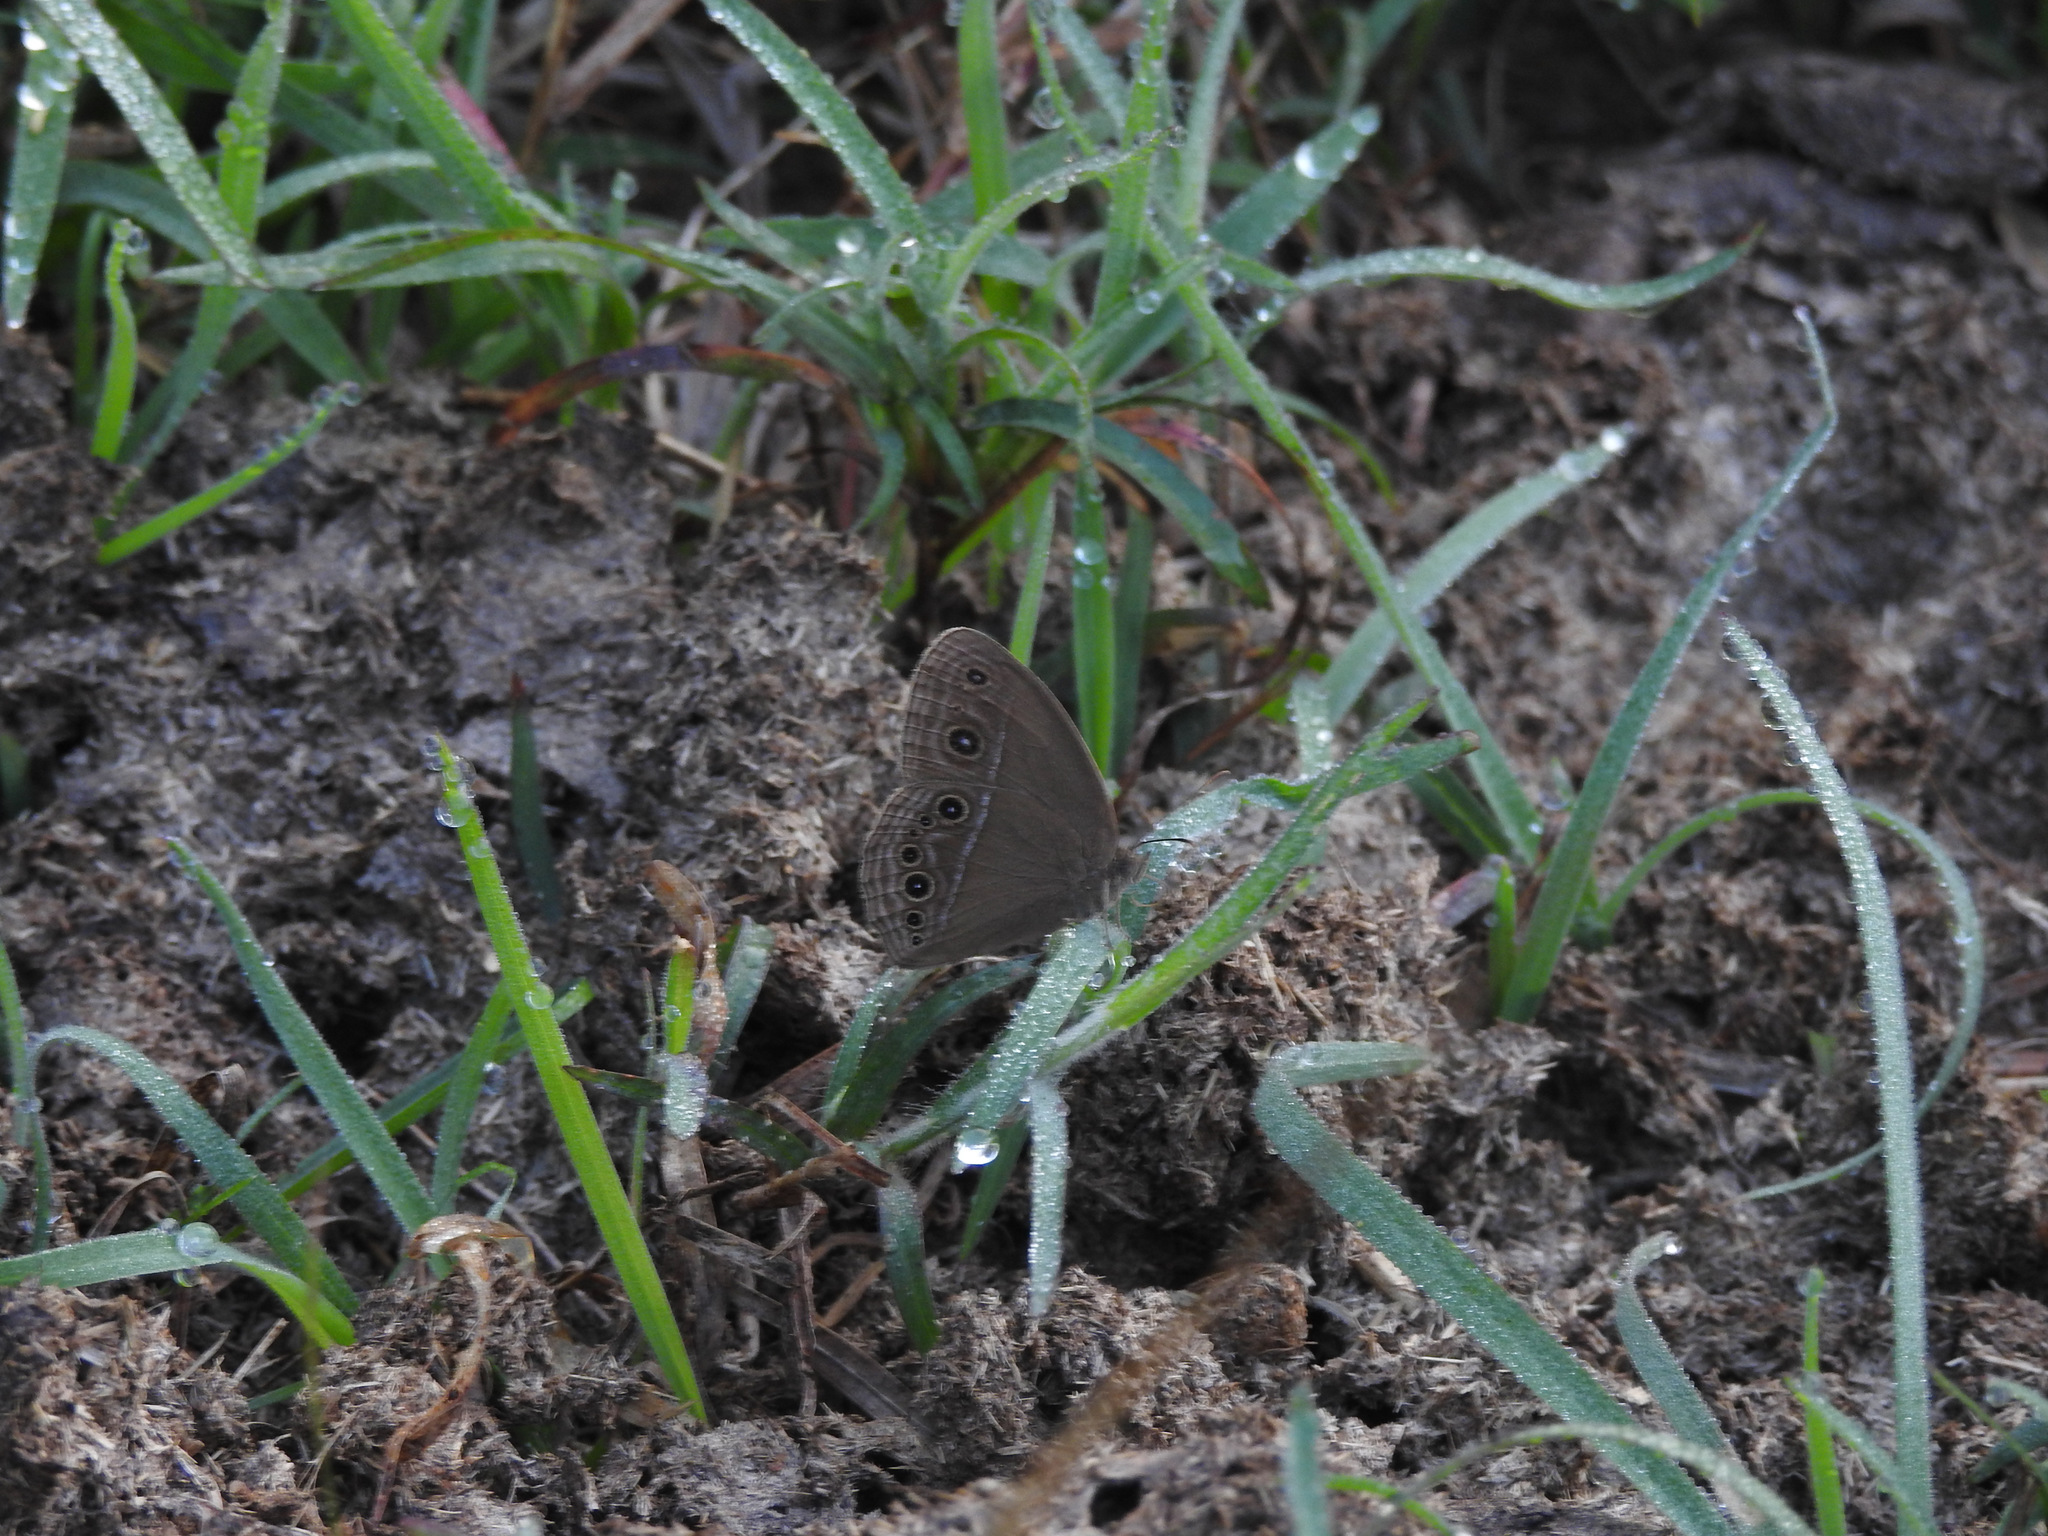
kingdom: Animalia
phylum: Arthropoda
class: Insecta
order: Lepidoptera
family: Nymphalidae
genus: Mycalesis
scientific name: Mycalesis perseus
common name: Dingy bushbrown
